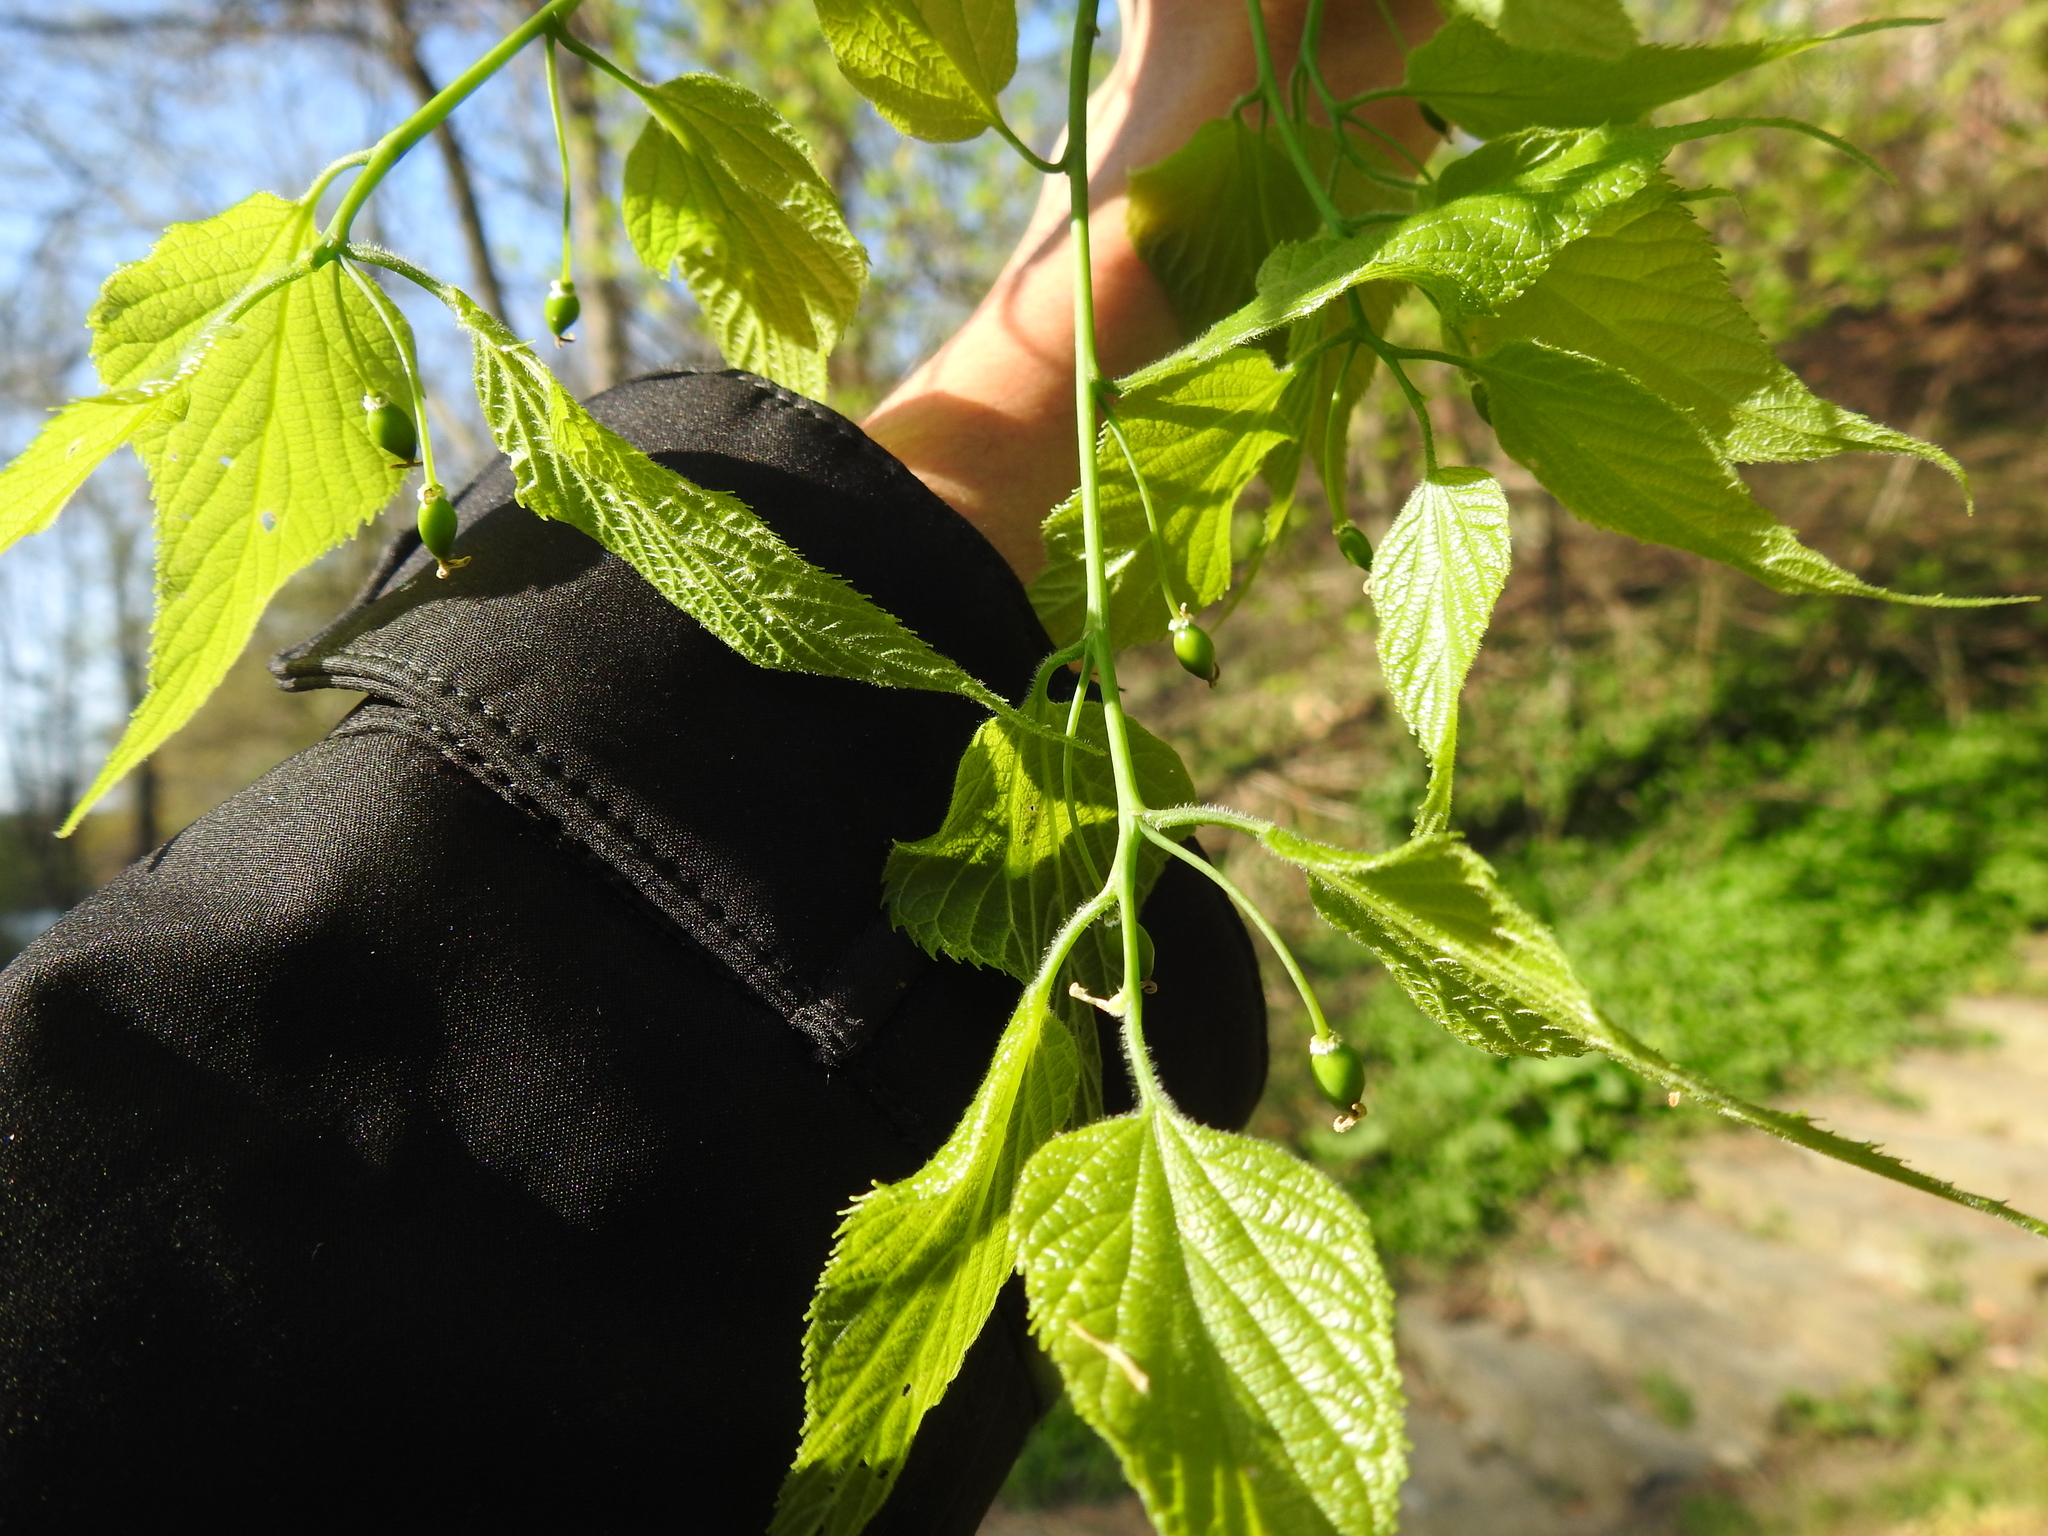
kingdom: Plantae
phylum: Tracheophyta
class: Magnoliopsida
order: Rosales
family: Cannabaceae
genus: Celtis
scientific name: Celtis occidentalis
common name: Common hackberry
